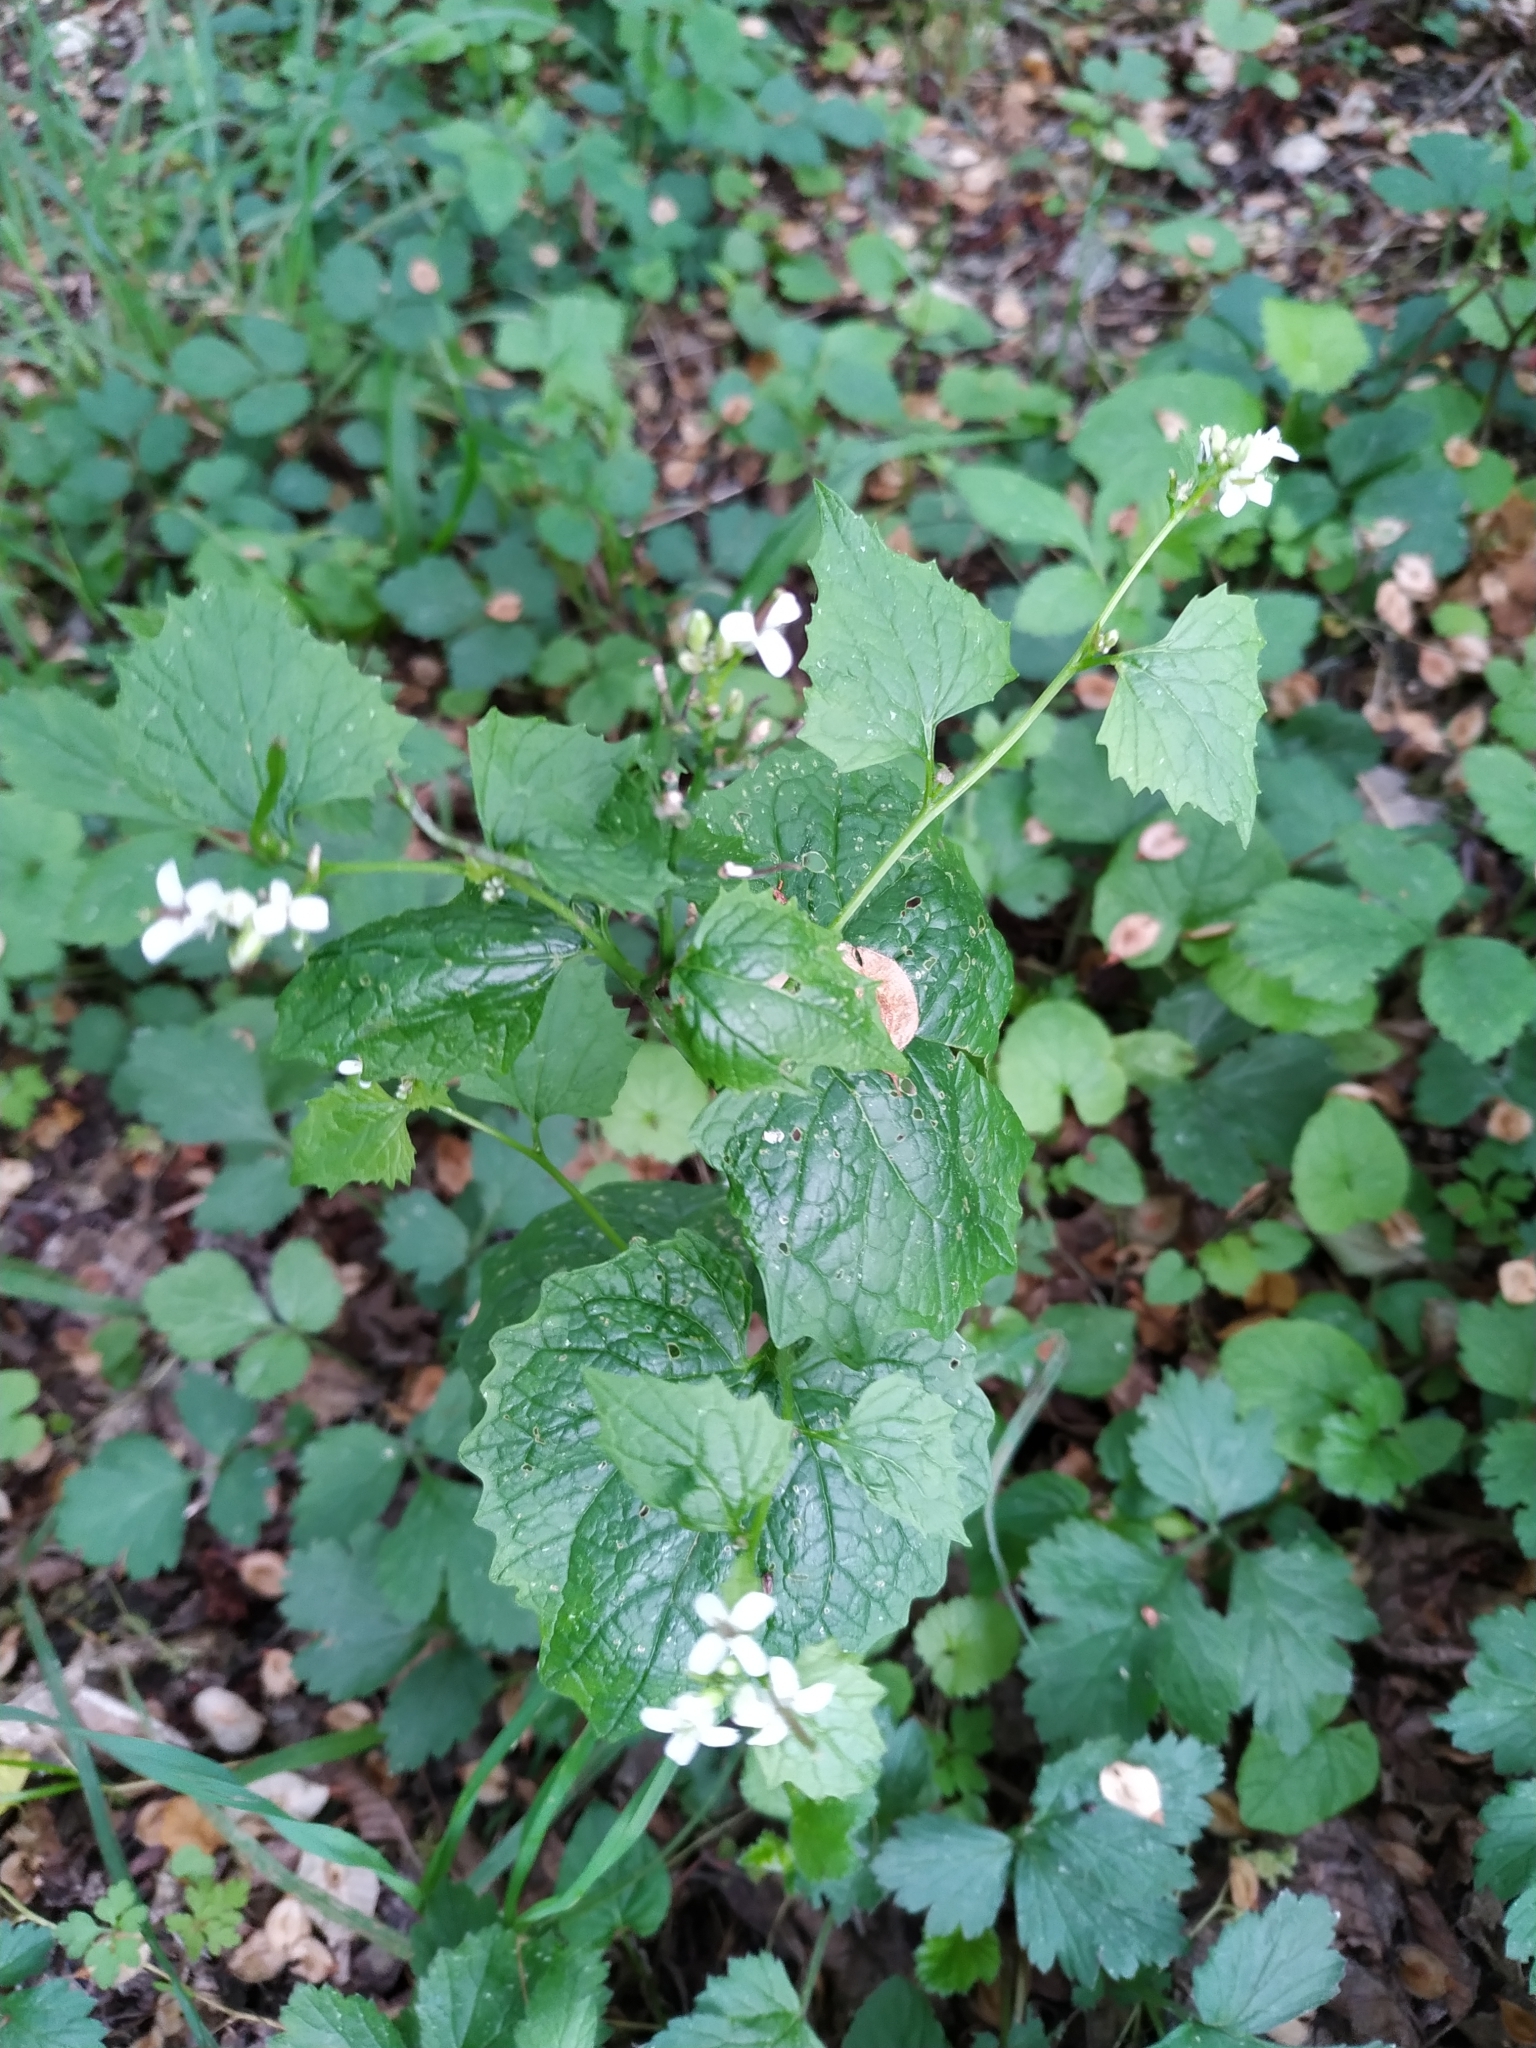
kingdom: Plantae
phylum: Tracheophyta
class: Magnoliopsida
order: Brassicales
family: Brassicaceae
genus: Alliaria
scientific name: Alliaria petiolata
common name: Garlic mustard
